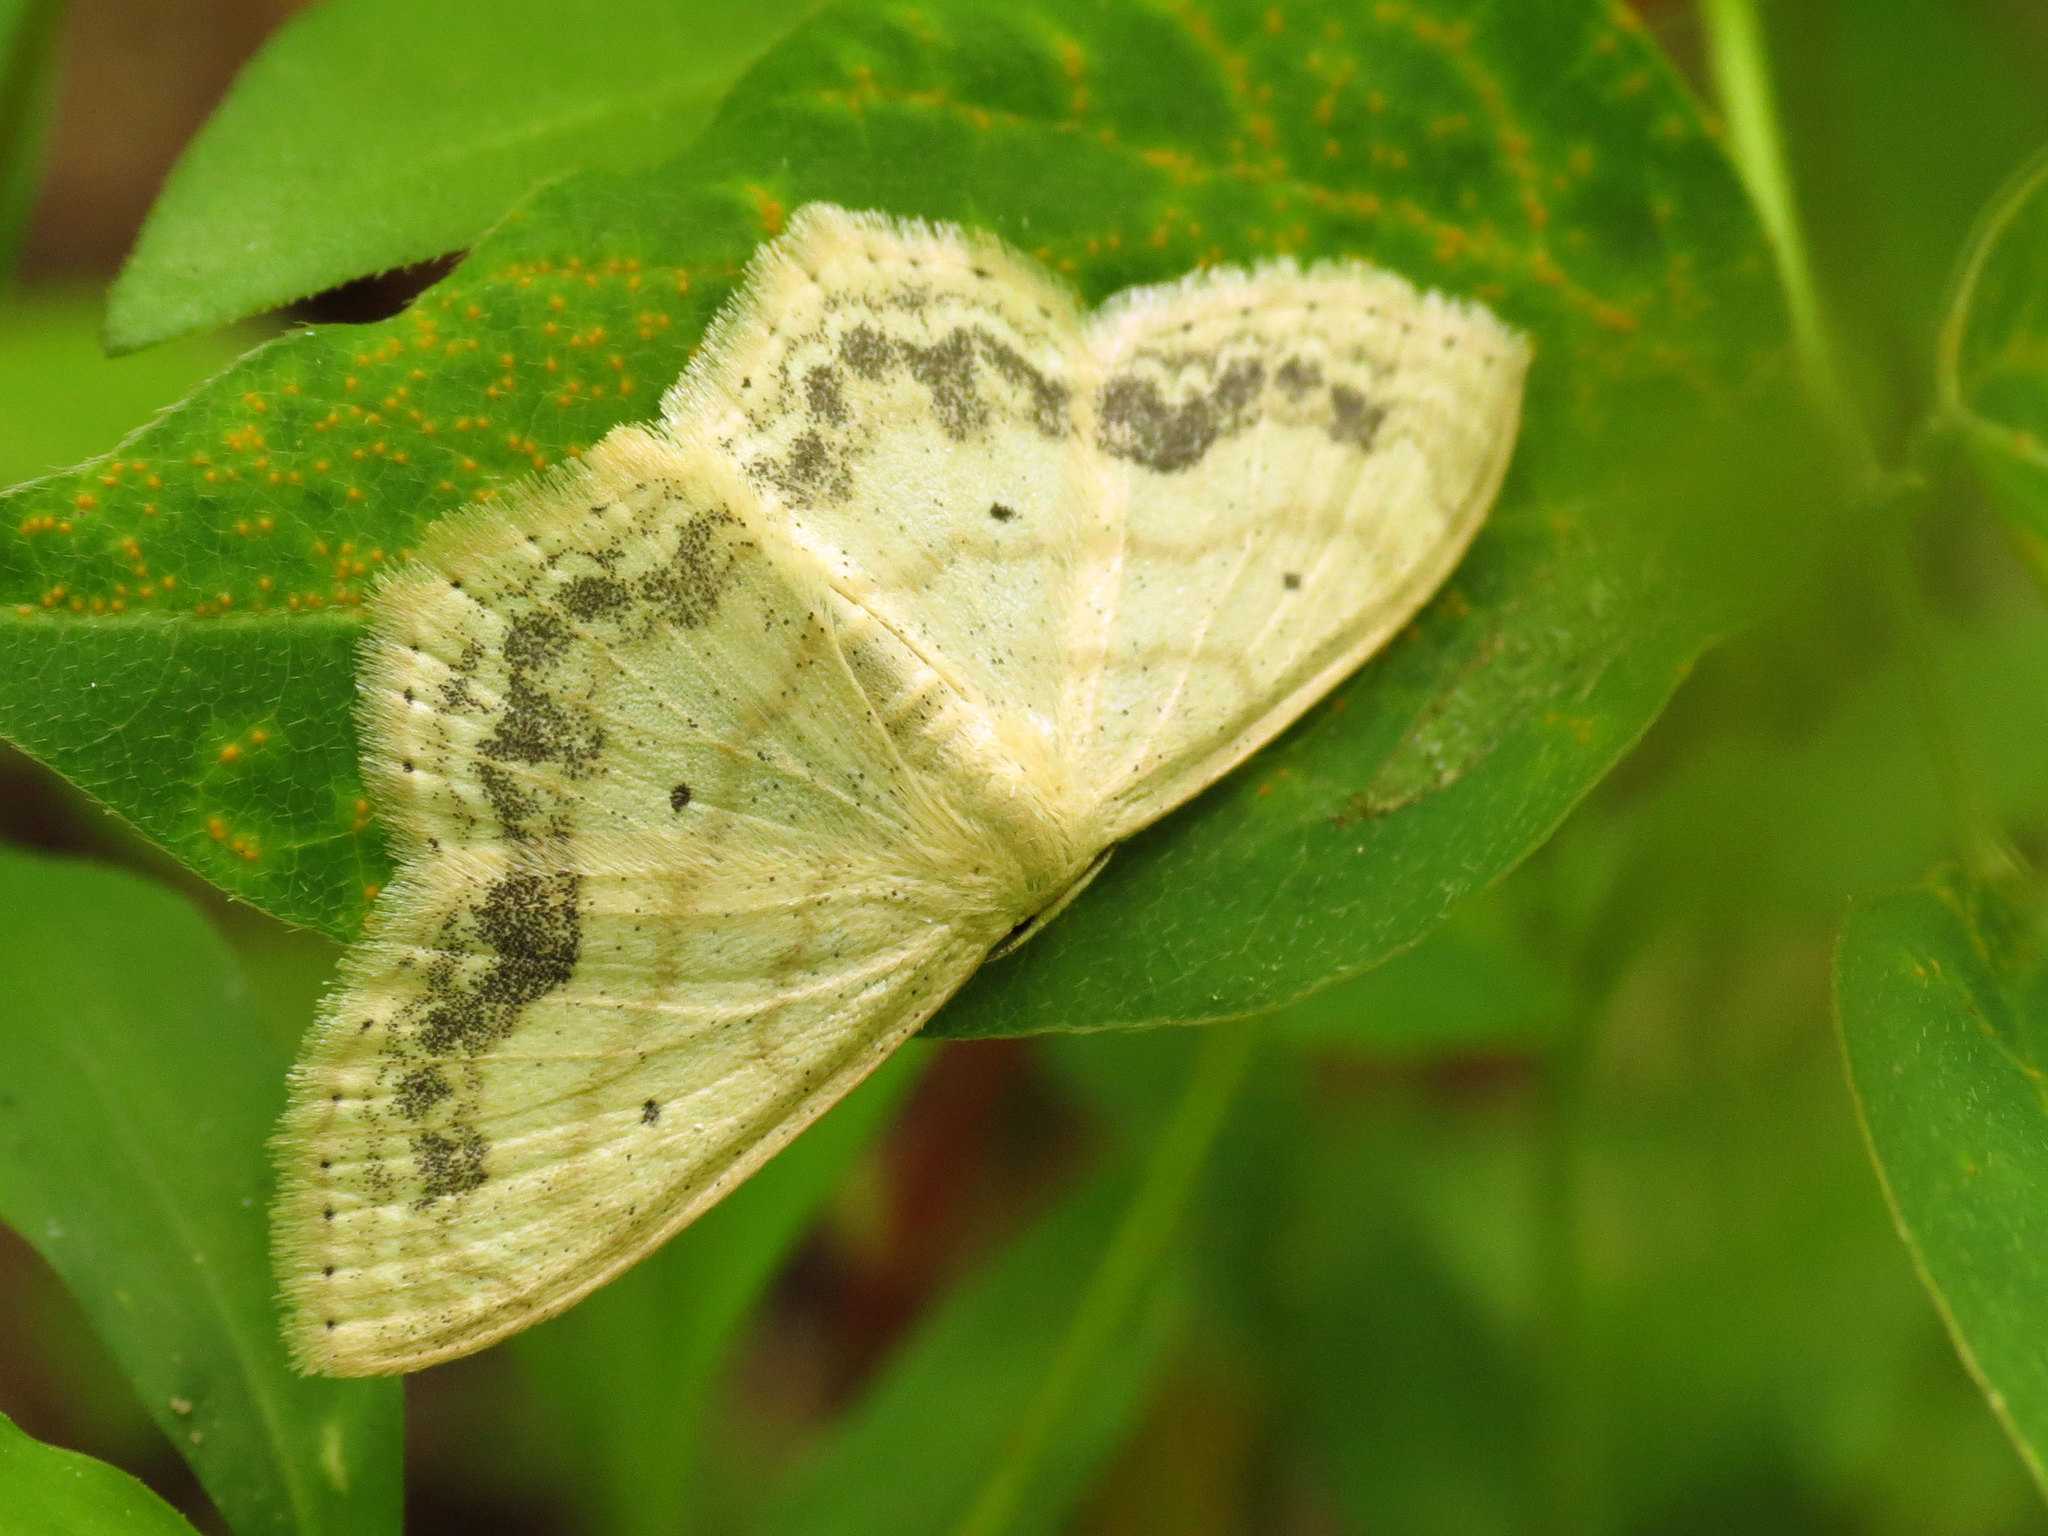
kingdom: Animalia
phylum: Arthropoda
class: Insecta
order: Lepidoptera
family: Geometridae
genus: Scopula
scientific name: Scopula limboundata
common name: Large lace border
